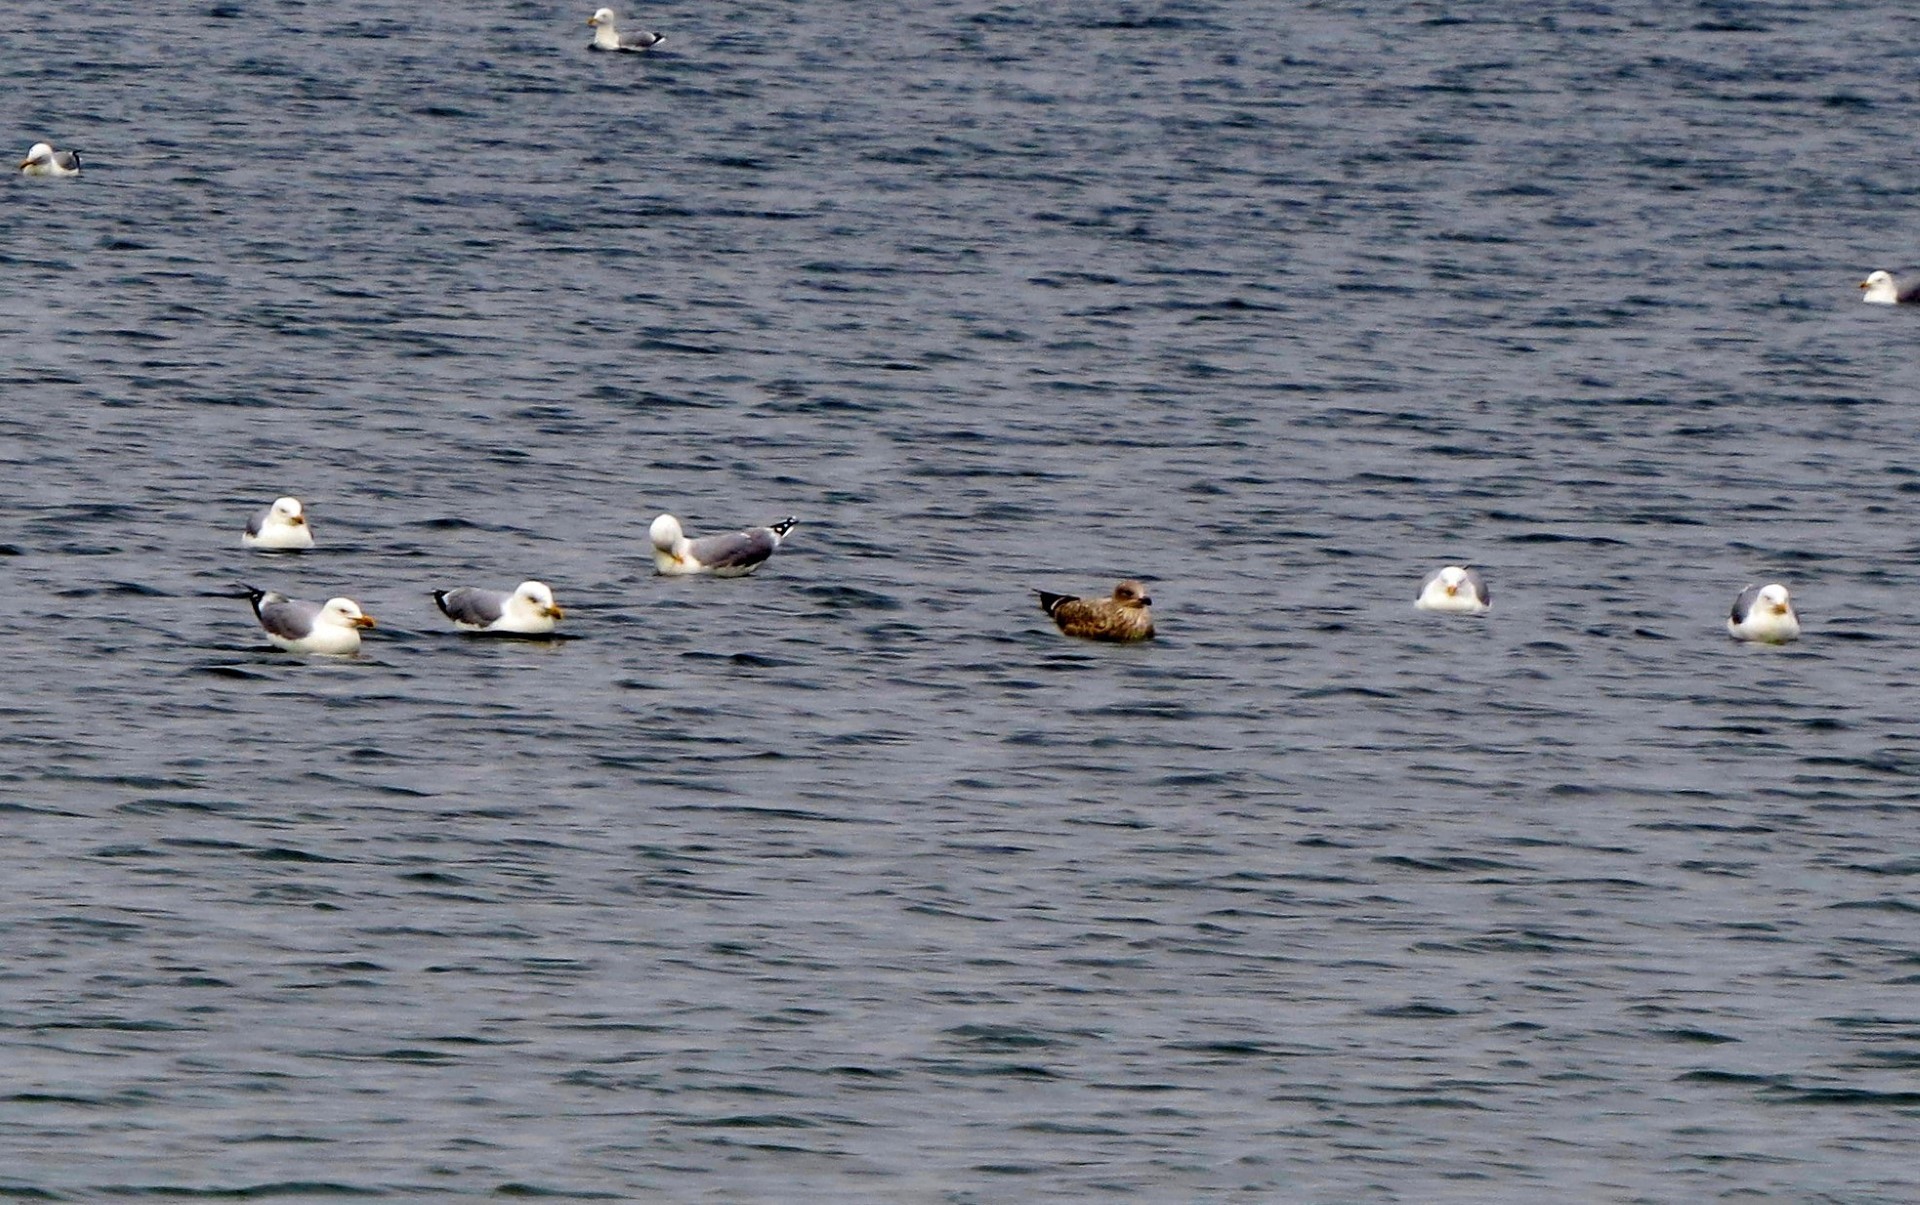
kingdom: Animalia
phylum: Chordata
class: Aves
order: Charadriiformes
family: Laridae
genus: Larus
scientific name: Larus argentatus
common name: Herring gull
